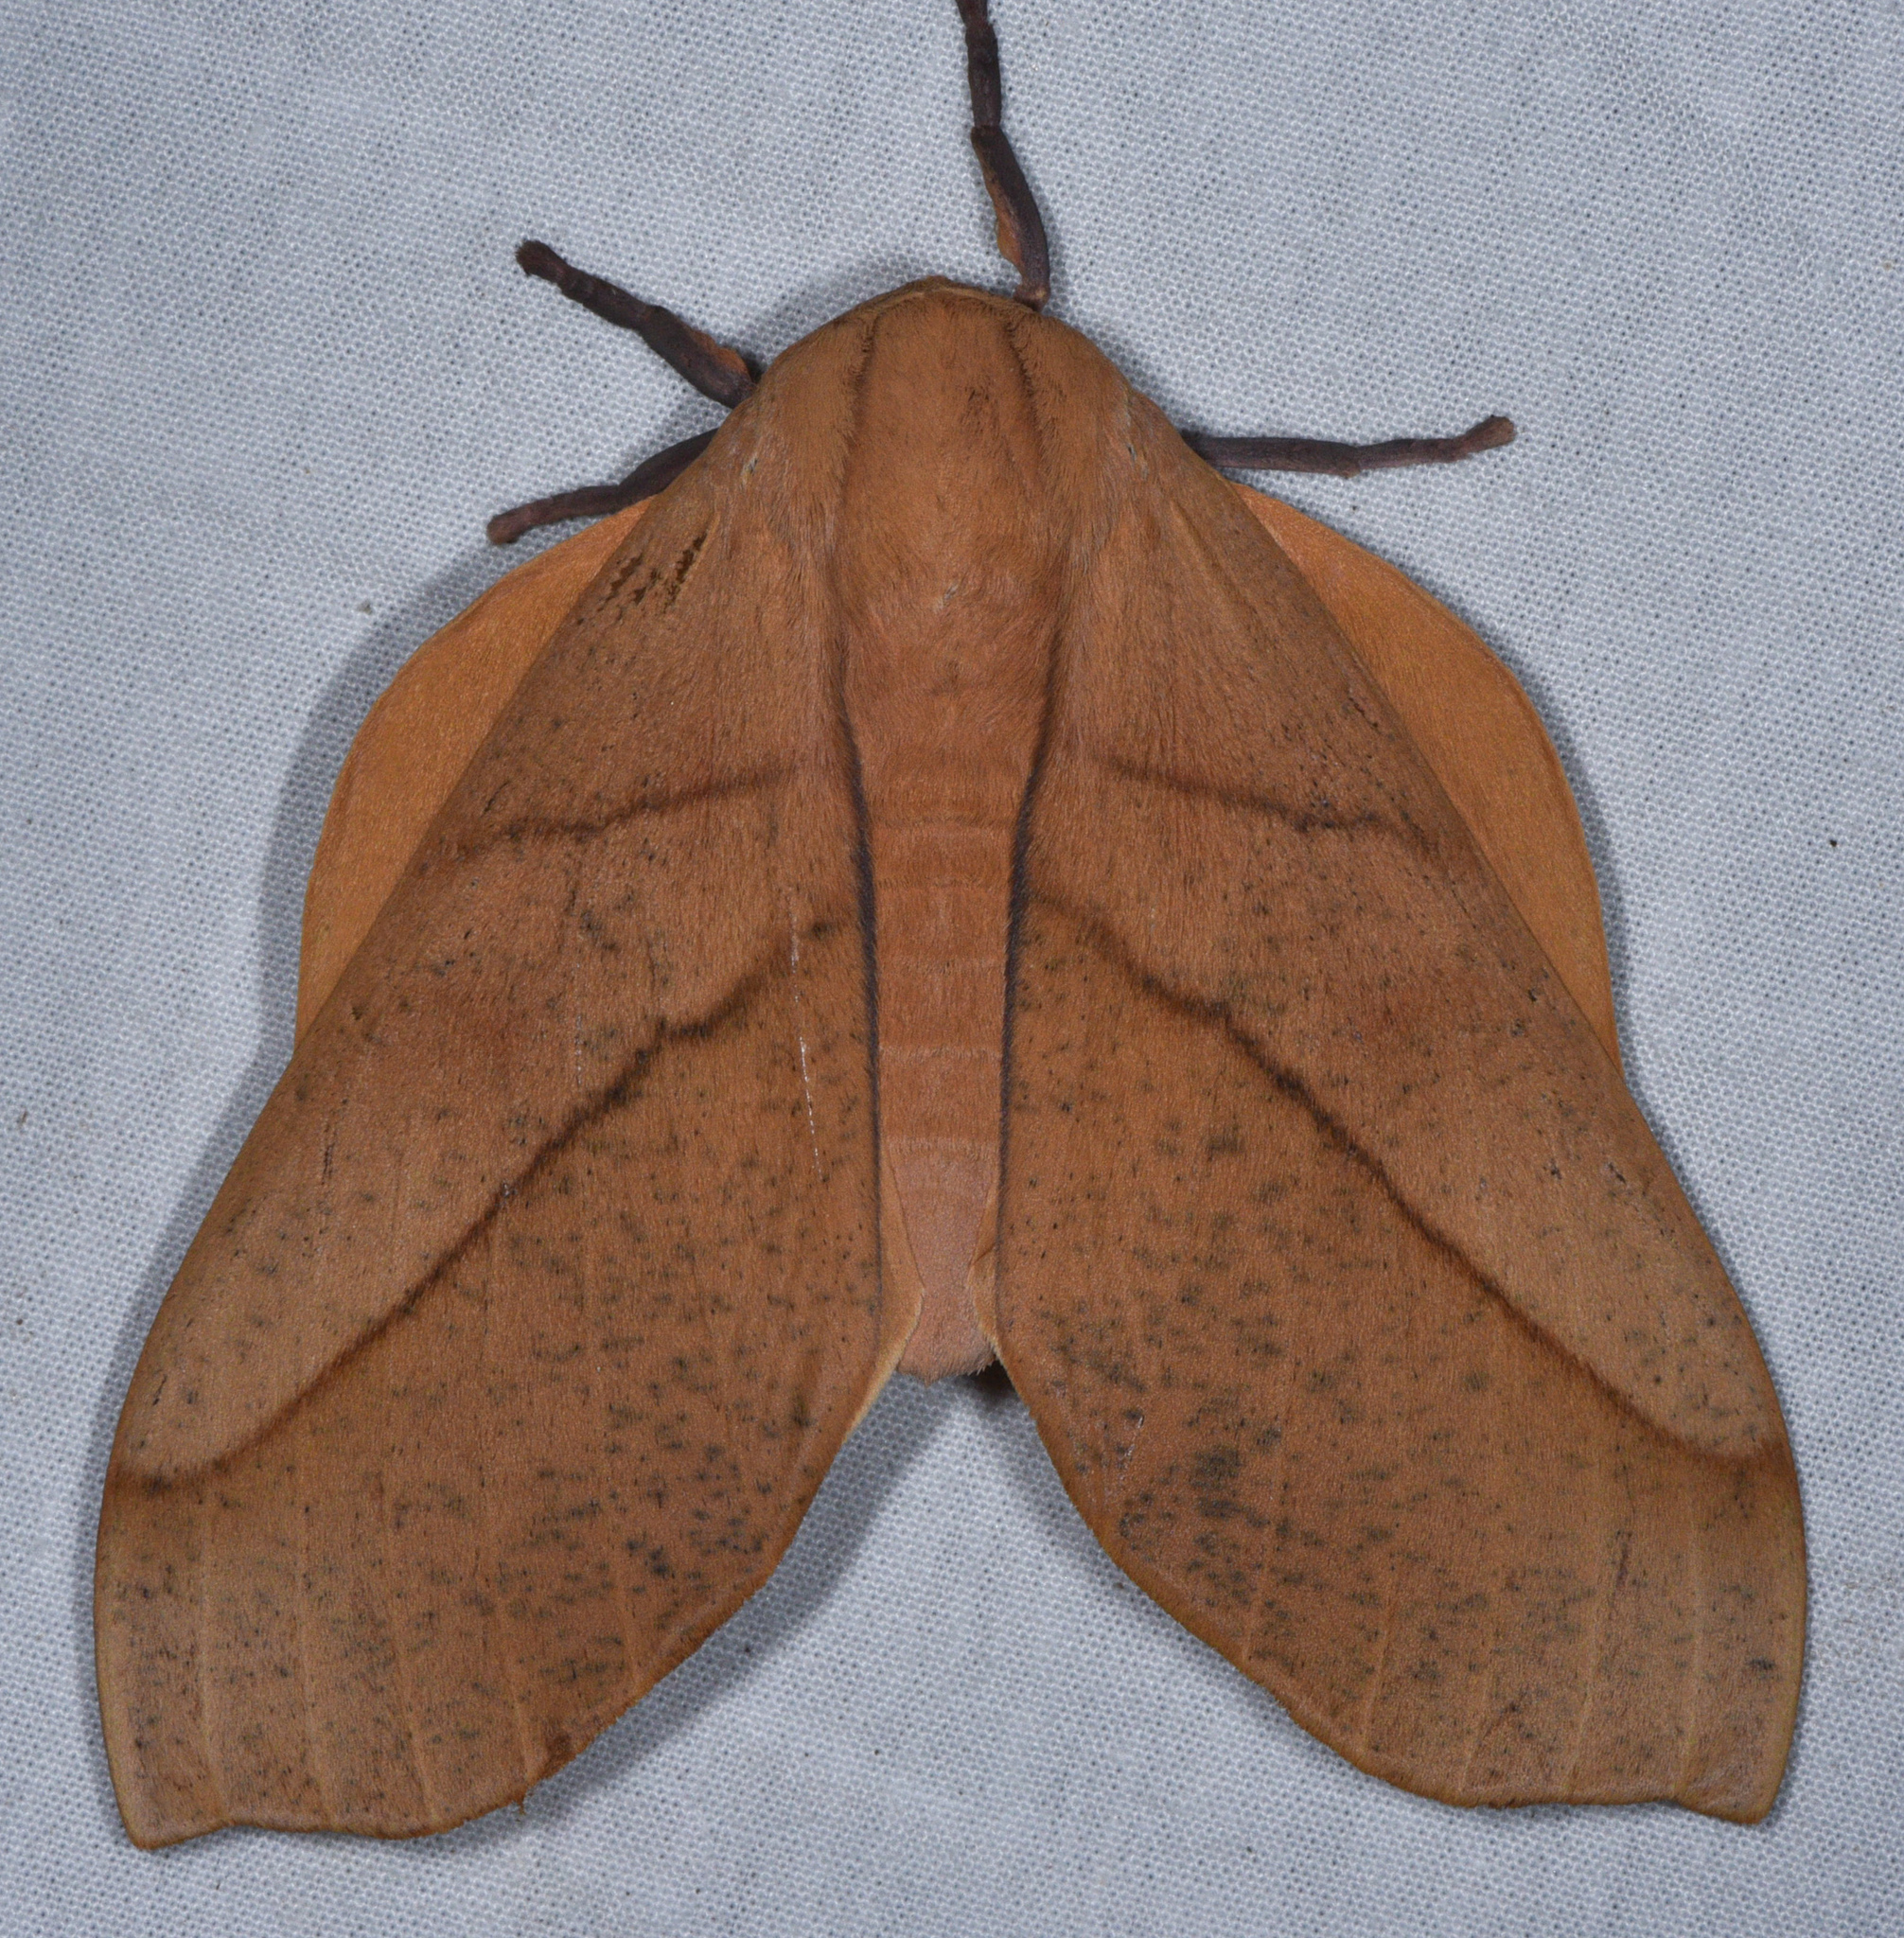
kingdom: Animalia
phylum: Arthropoda
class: Insecta
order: Lepidoptera
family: Saturniidae
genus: Syssphinx
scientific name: Syssphinx molina
